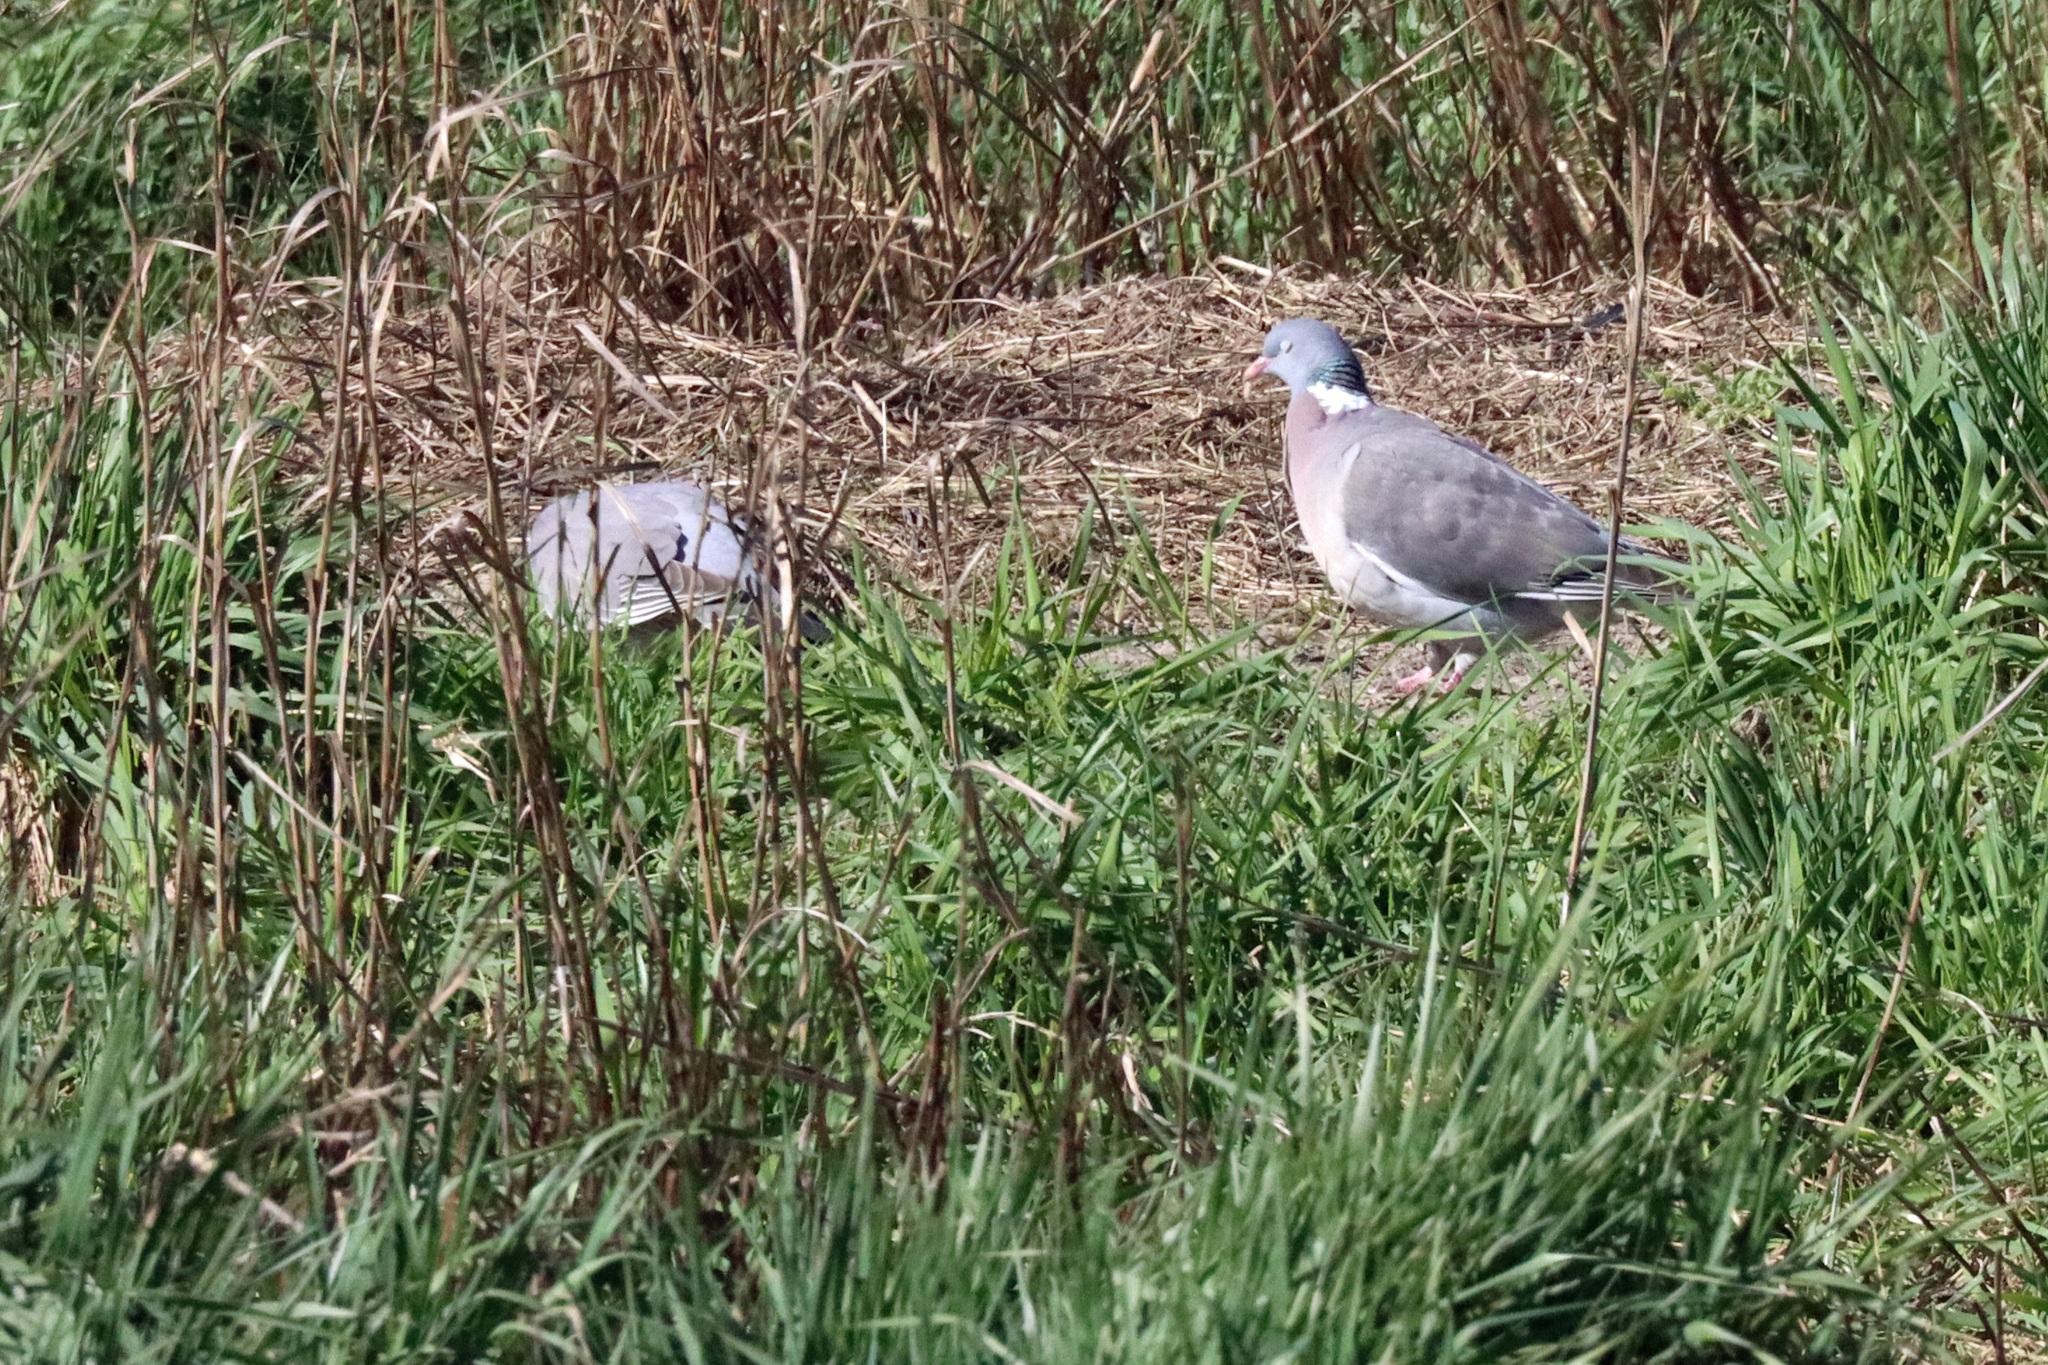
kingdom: Animalia
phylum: Chordata
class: Aves
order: Columbiformes
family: Columbidae
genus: Columba
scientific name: Columba palumbus
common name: Common wood pigeon
